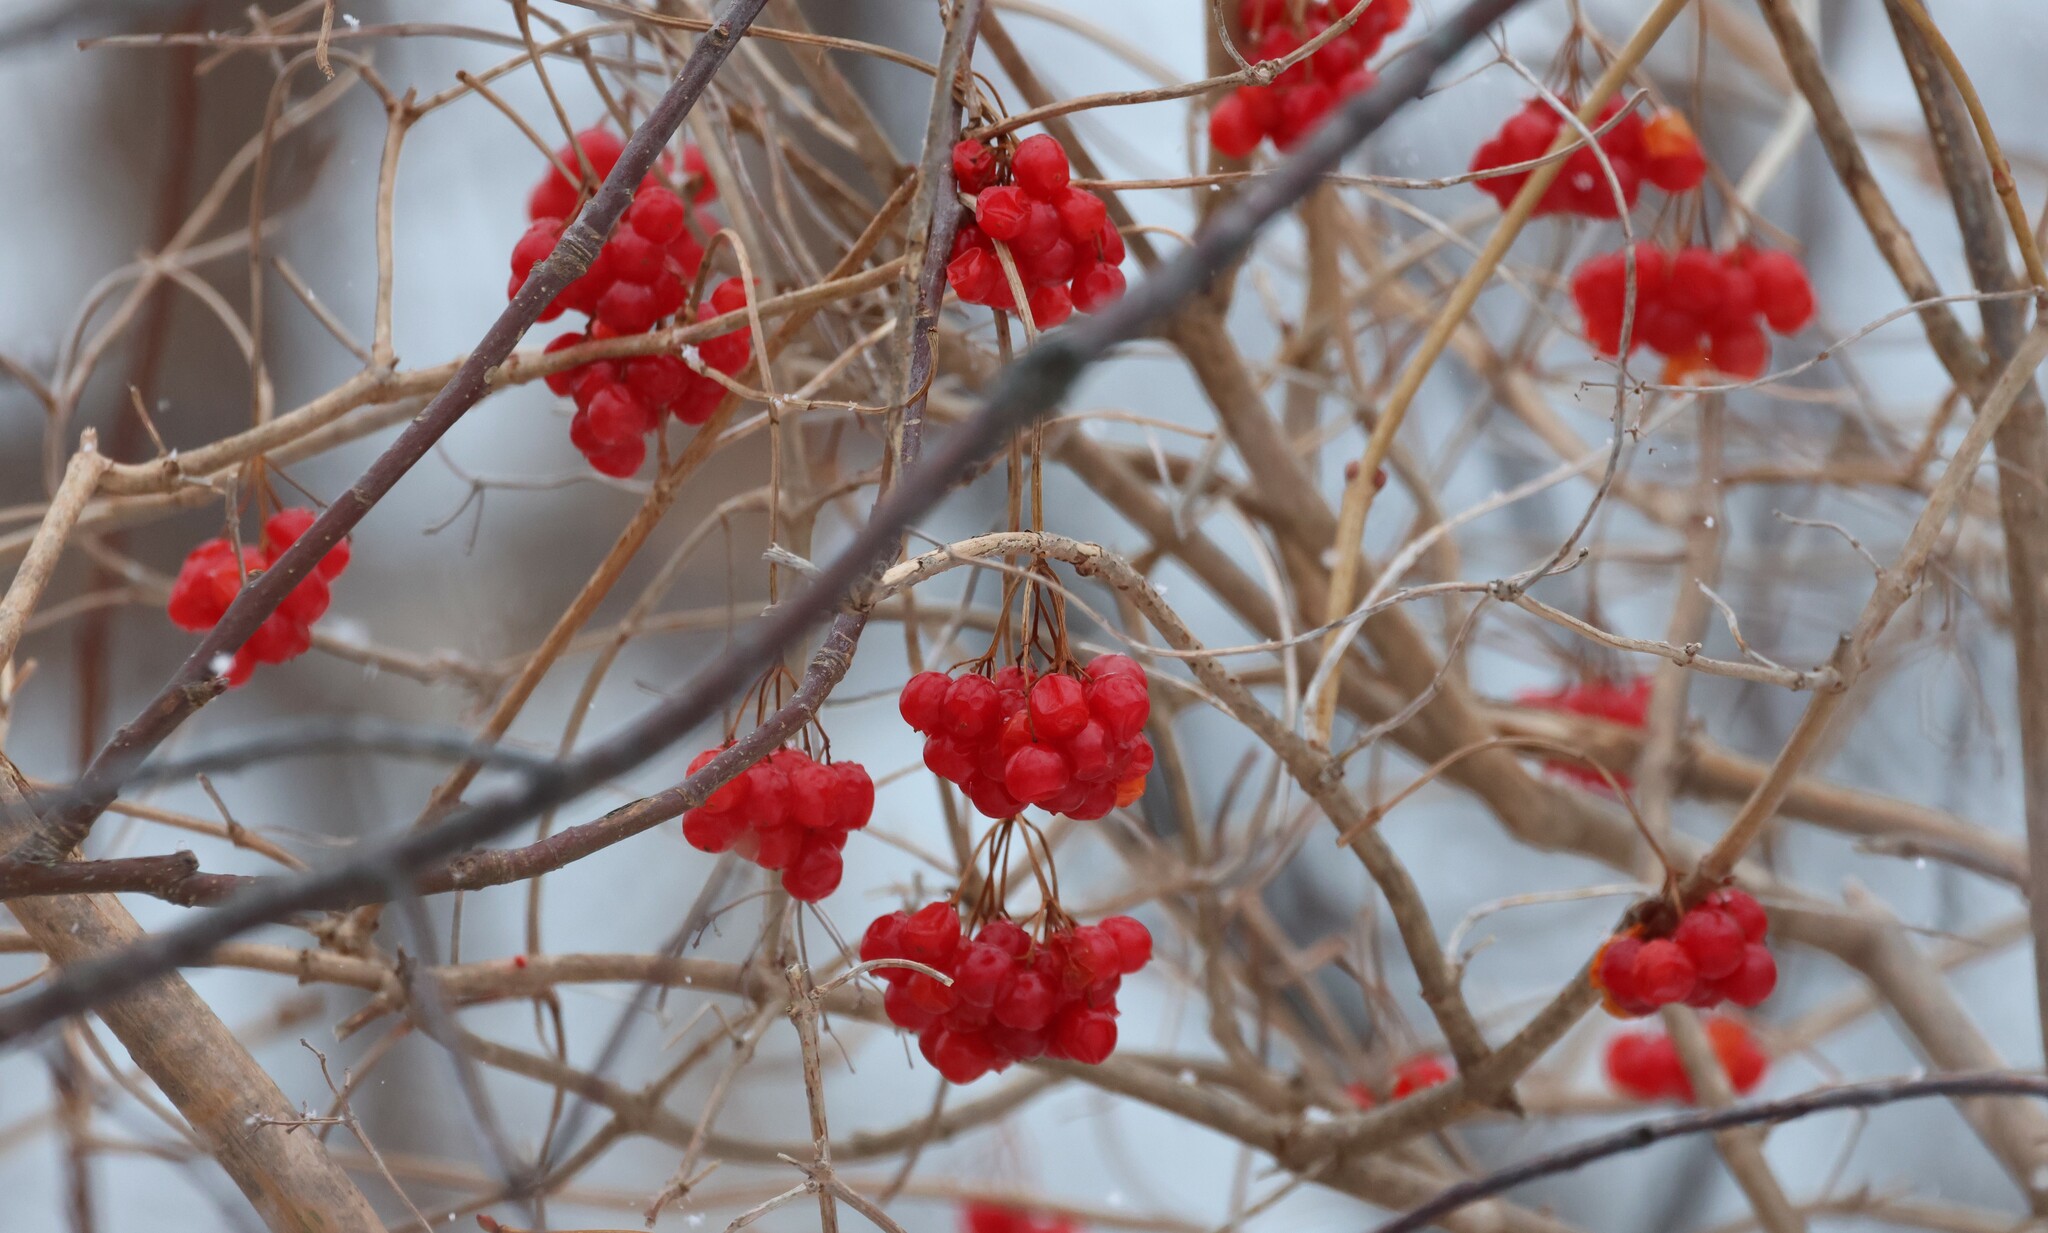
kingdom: Plantae
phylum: Tracheophyta
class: Magnoliopsida
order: Dipsacales
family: Viburnaceae
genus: Viburnum
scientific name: Viburnum opulus
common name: Guelder-rose
